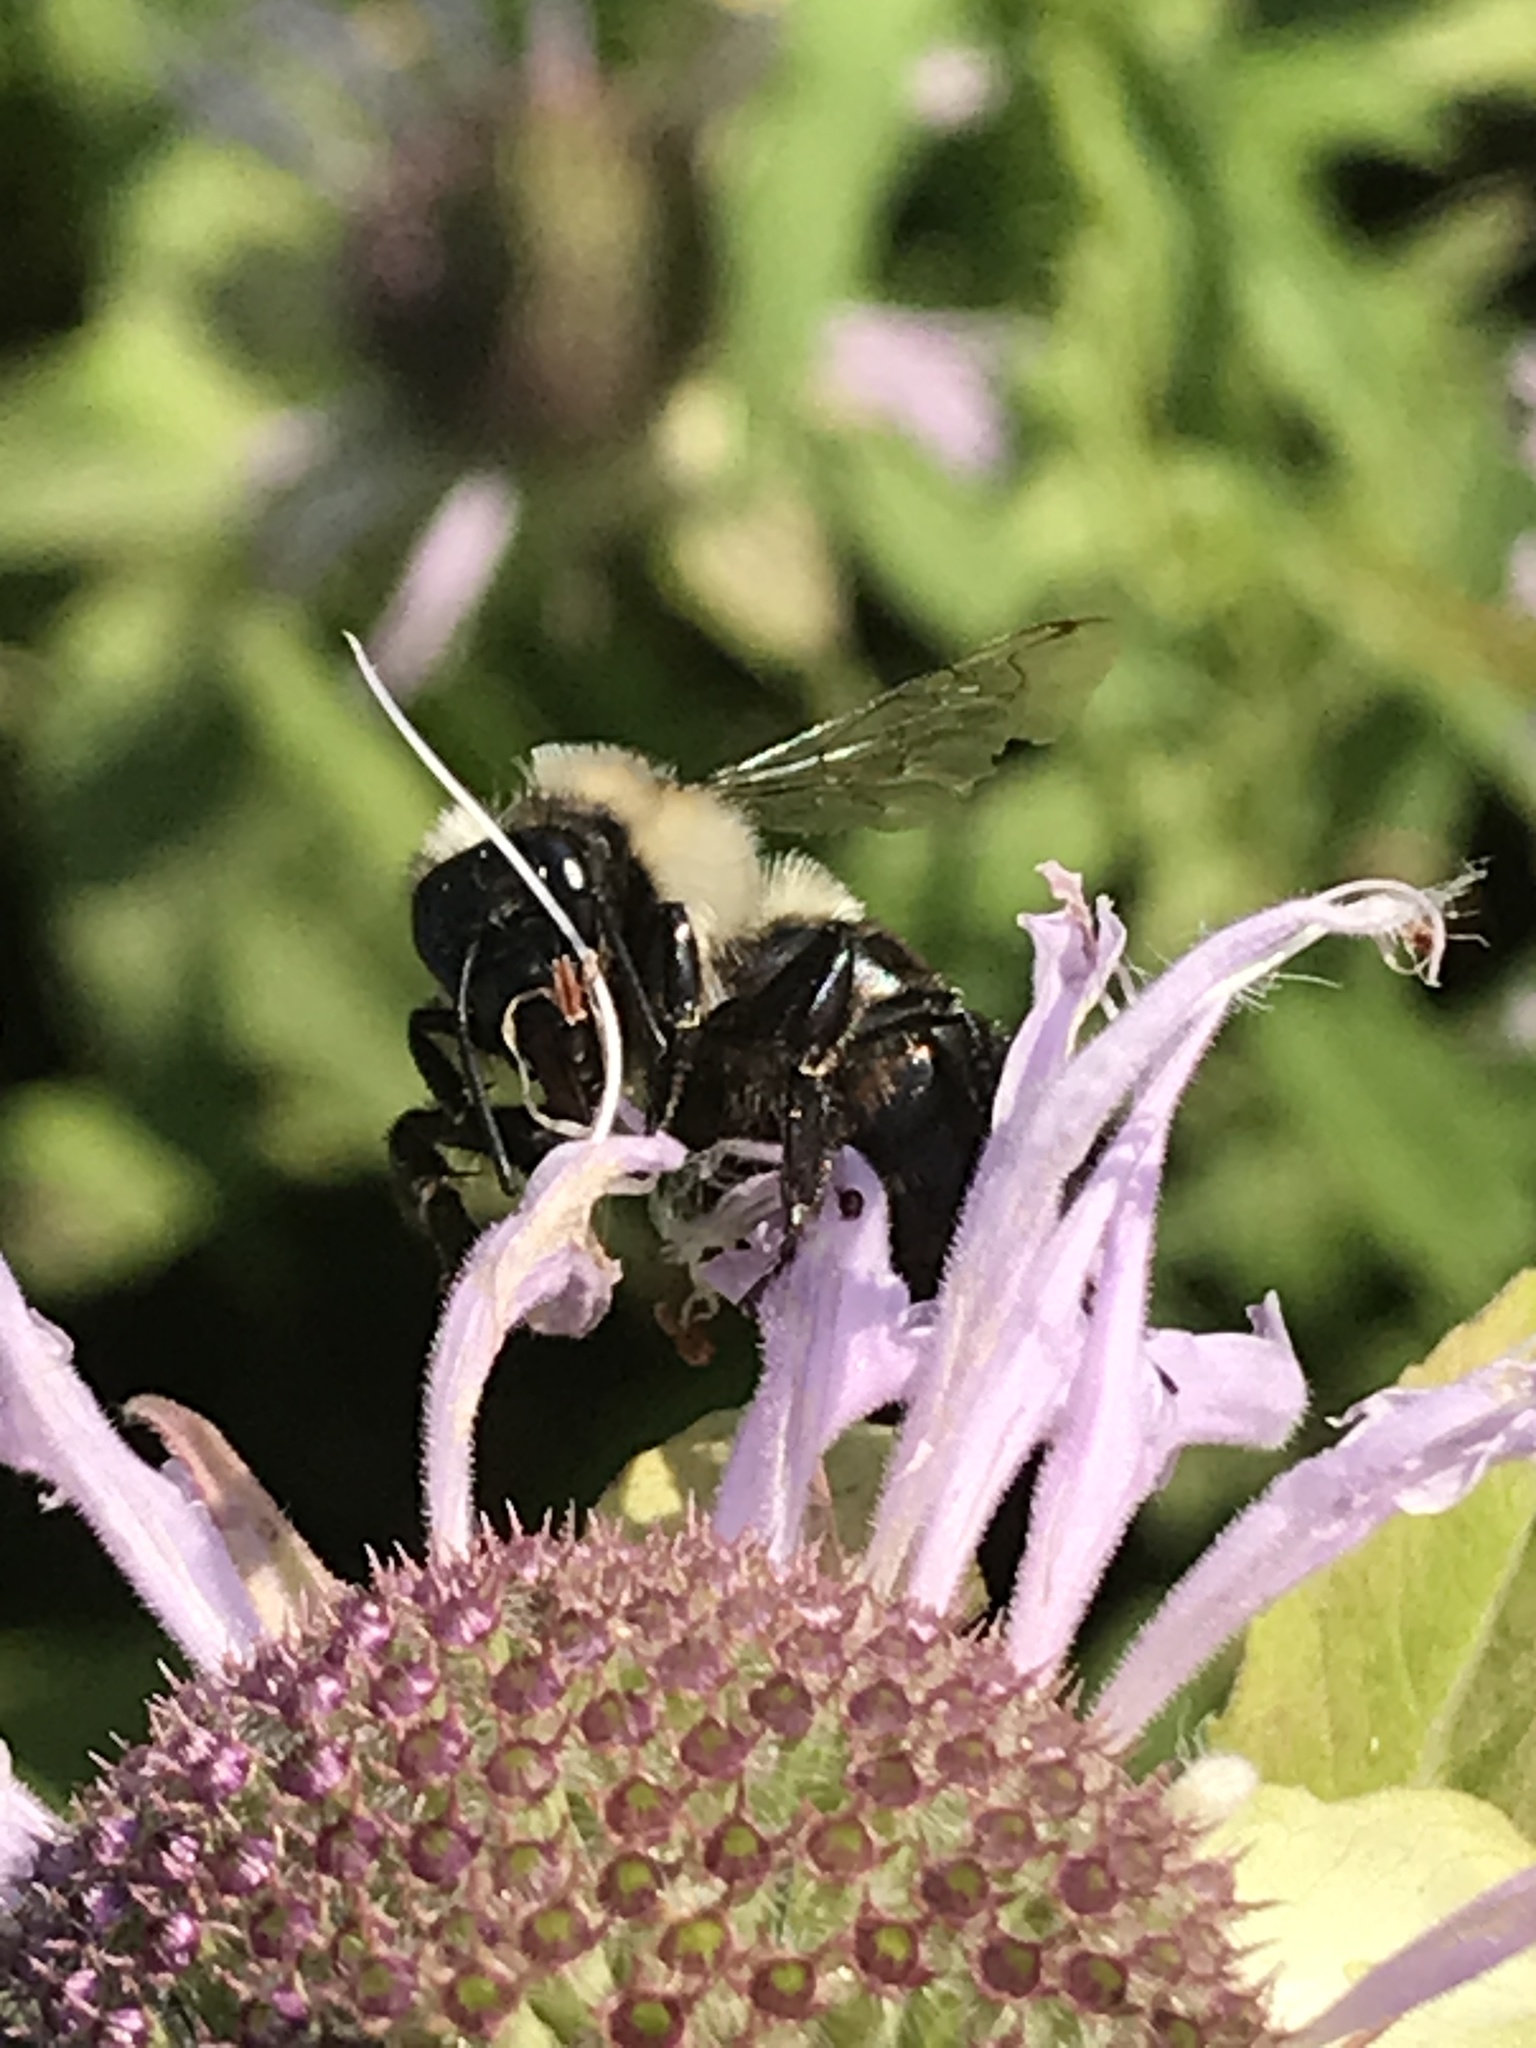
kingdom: Animalia
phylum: Arthropoda
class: Insecta
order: Hymenoptera
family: Apidae
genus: Bombus
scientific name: Bombus impatiens
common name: Common eastern bumble bee
